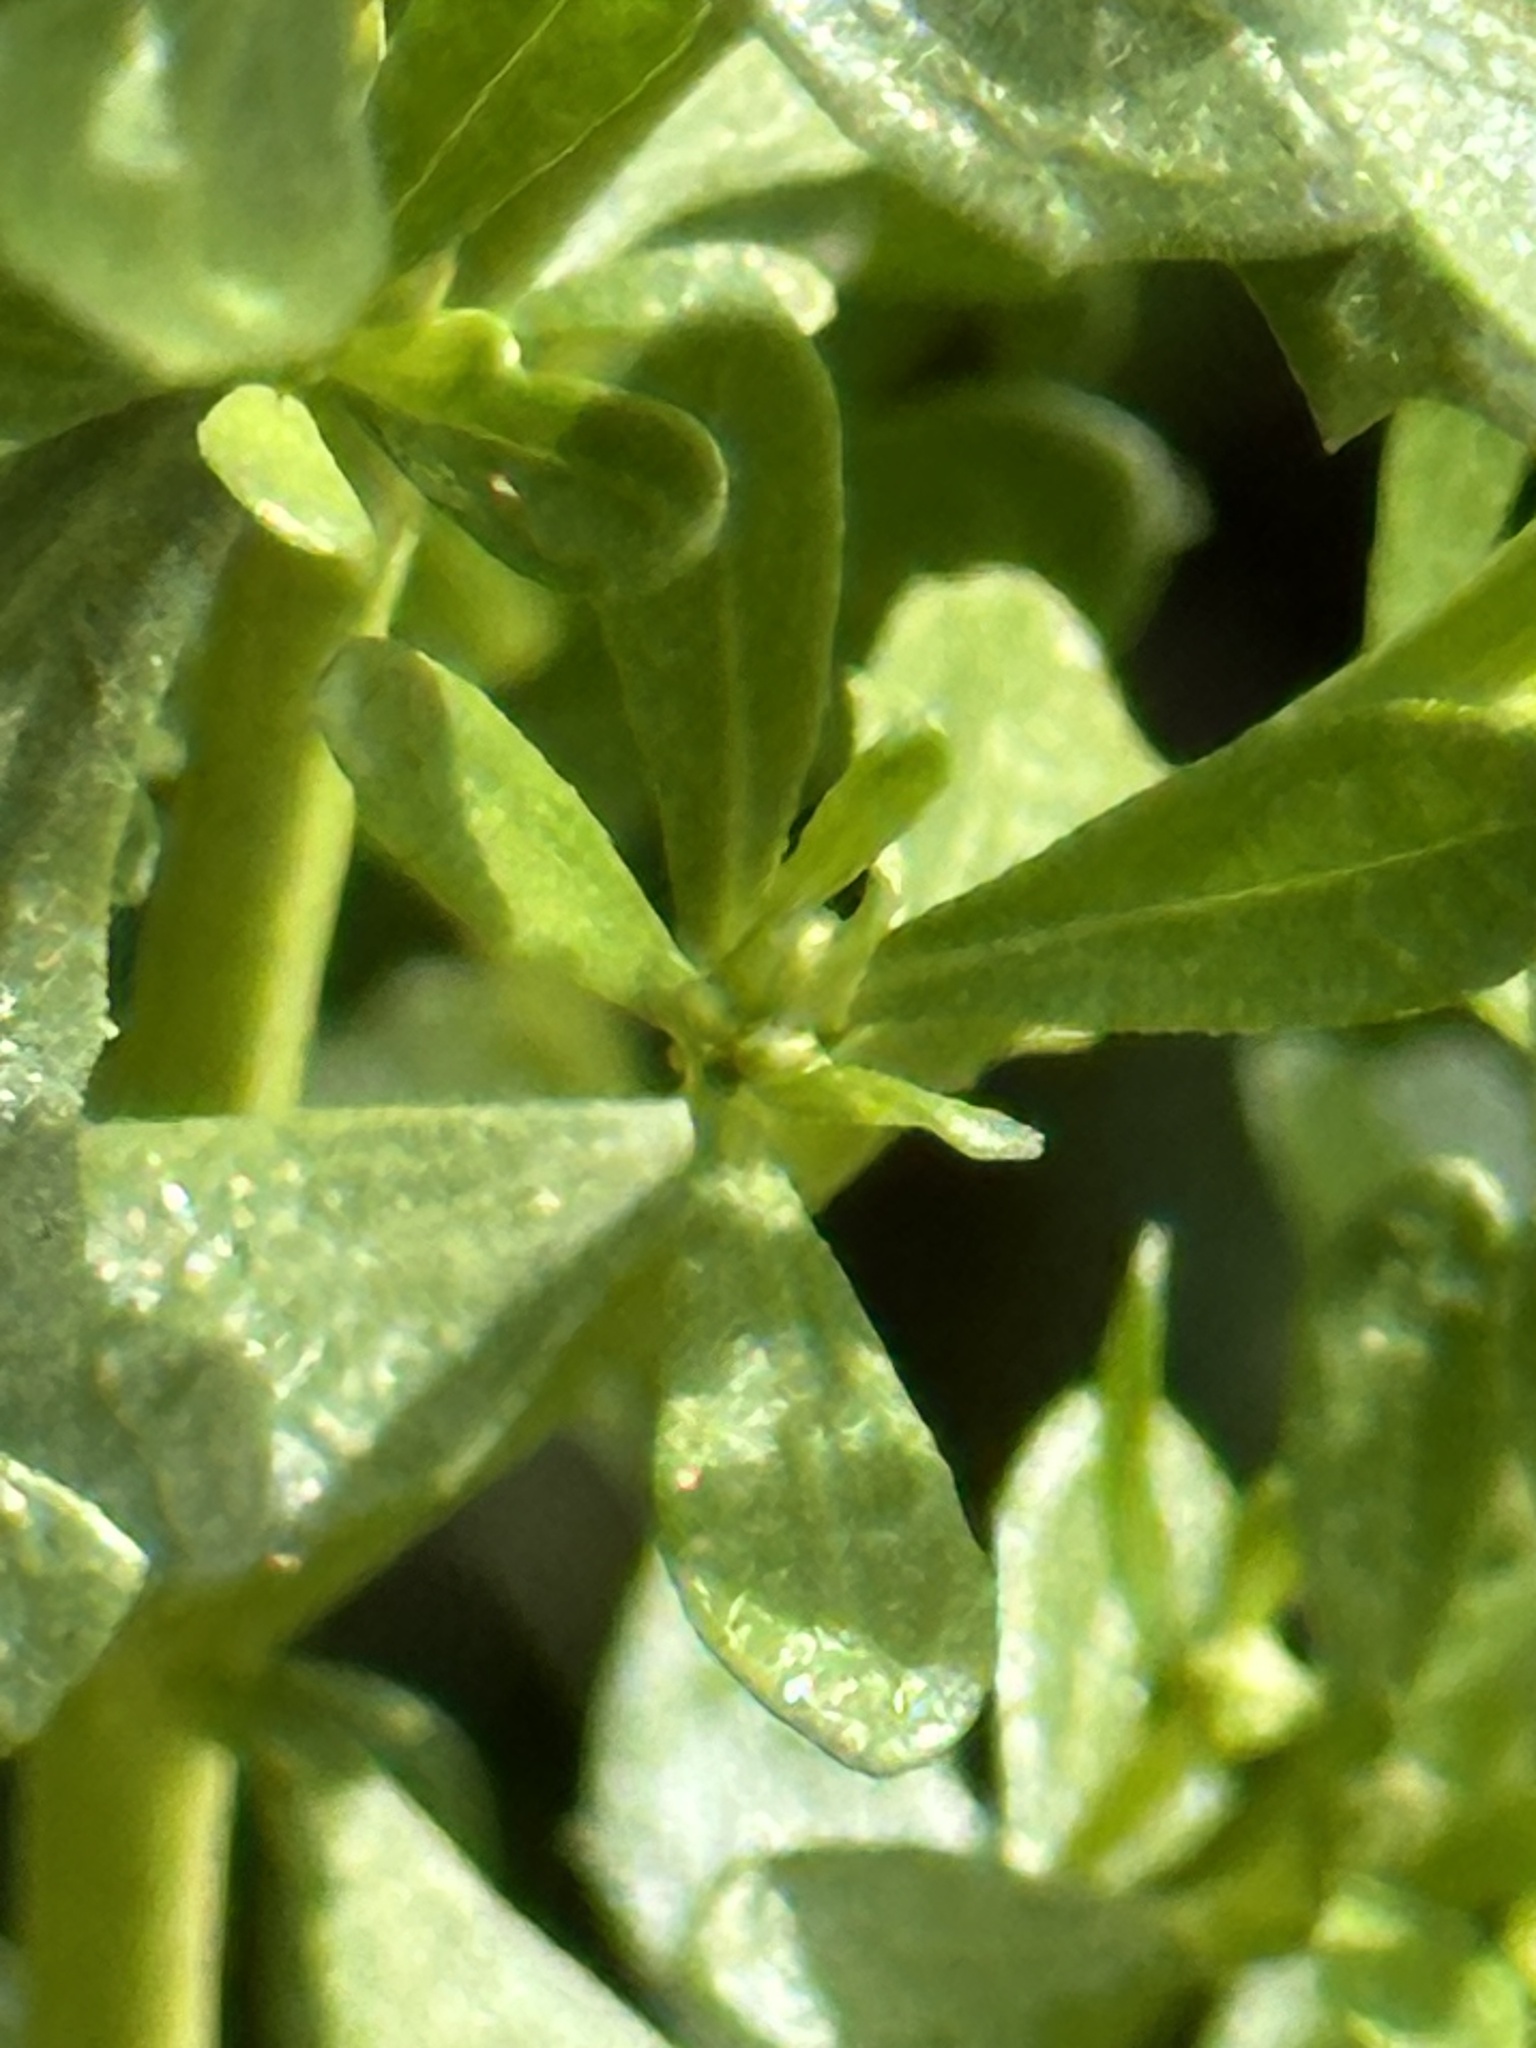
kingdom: Plantae
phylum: Tracheophyta
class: Magnoliopsida
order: Asterales
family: Asteraceae
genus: Baccharis
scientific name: Baccharis pilularis
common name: Coyotebrush
